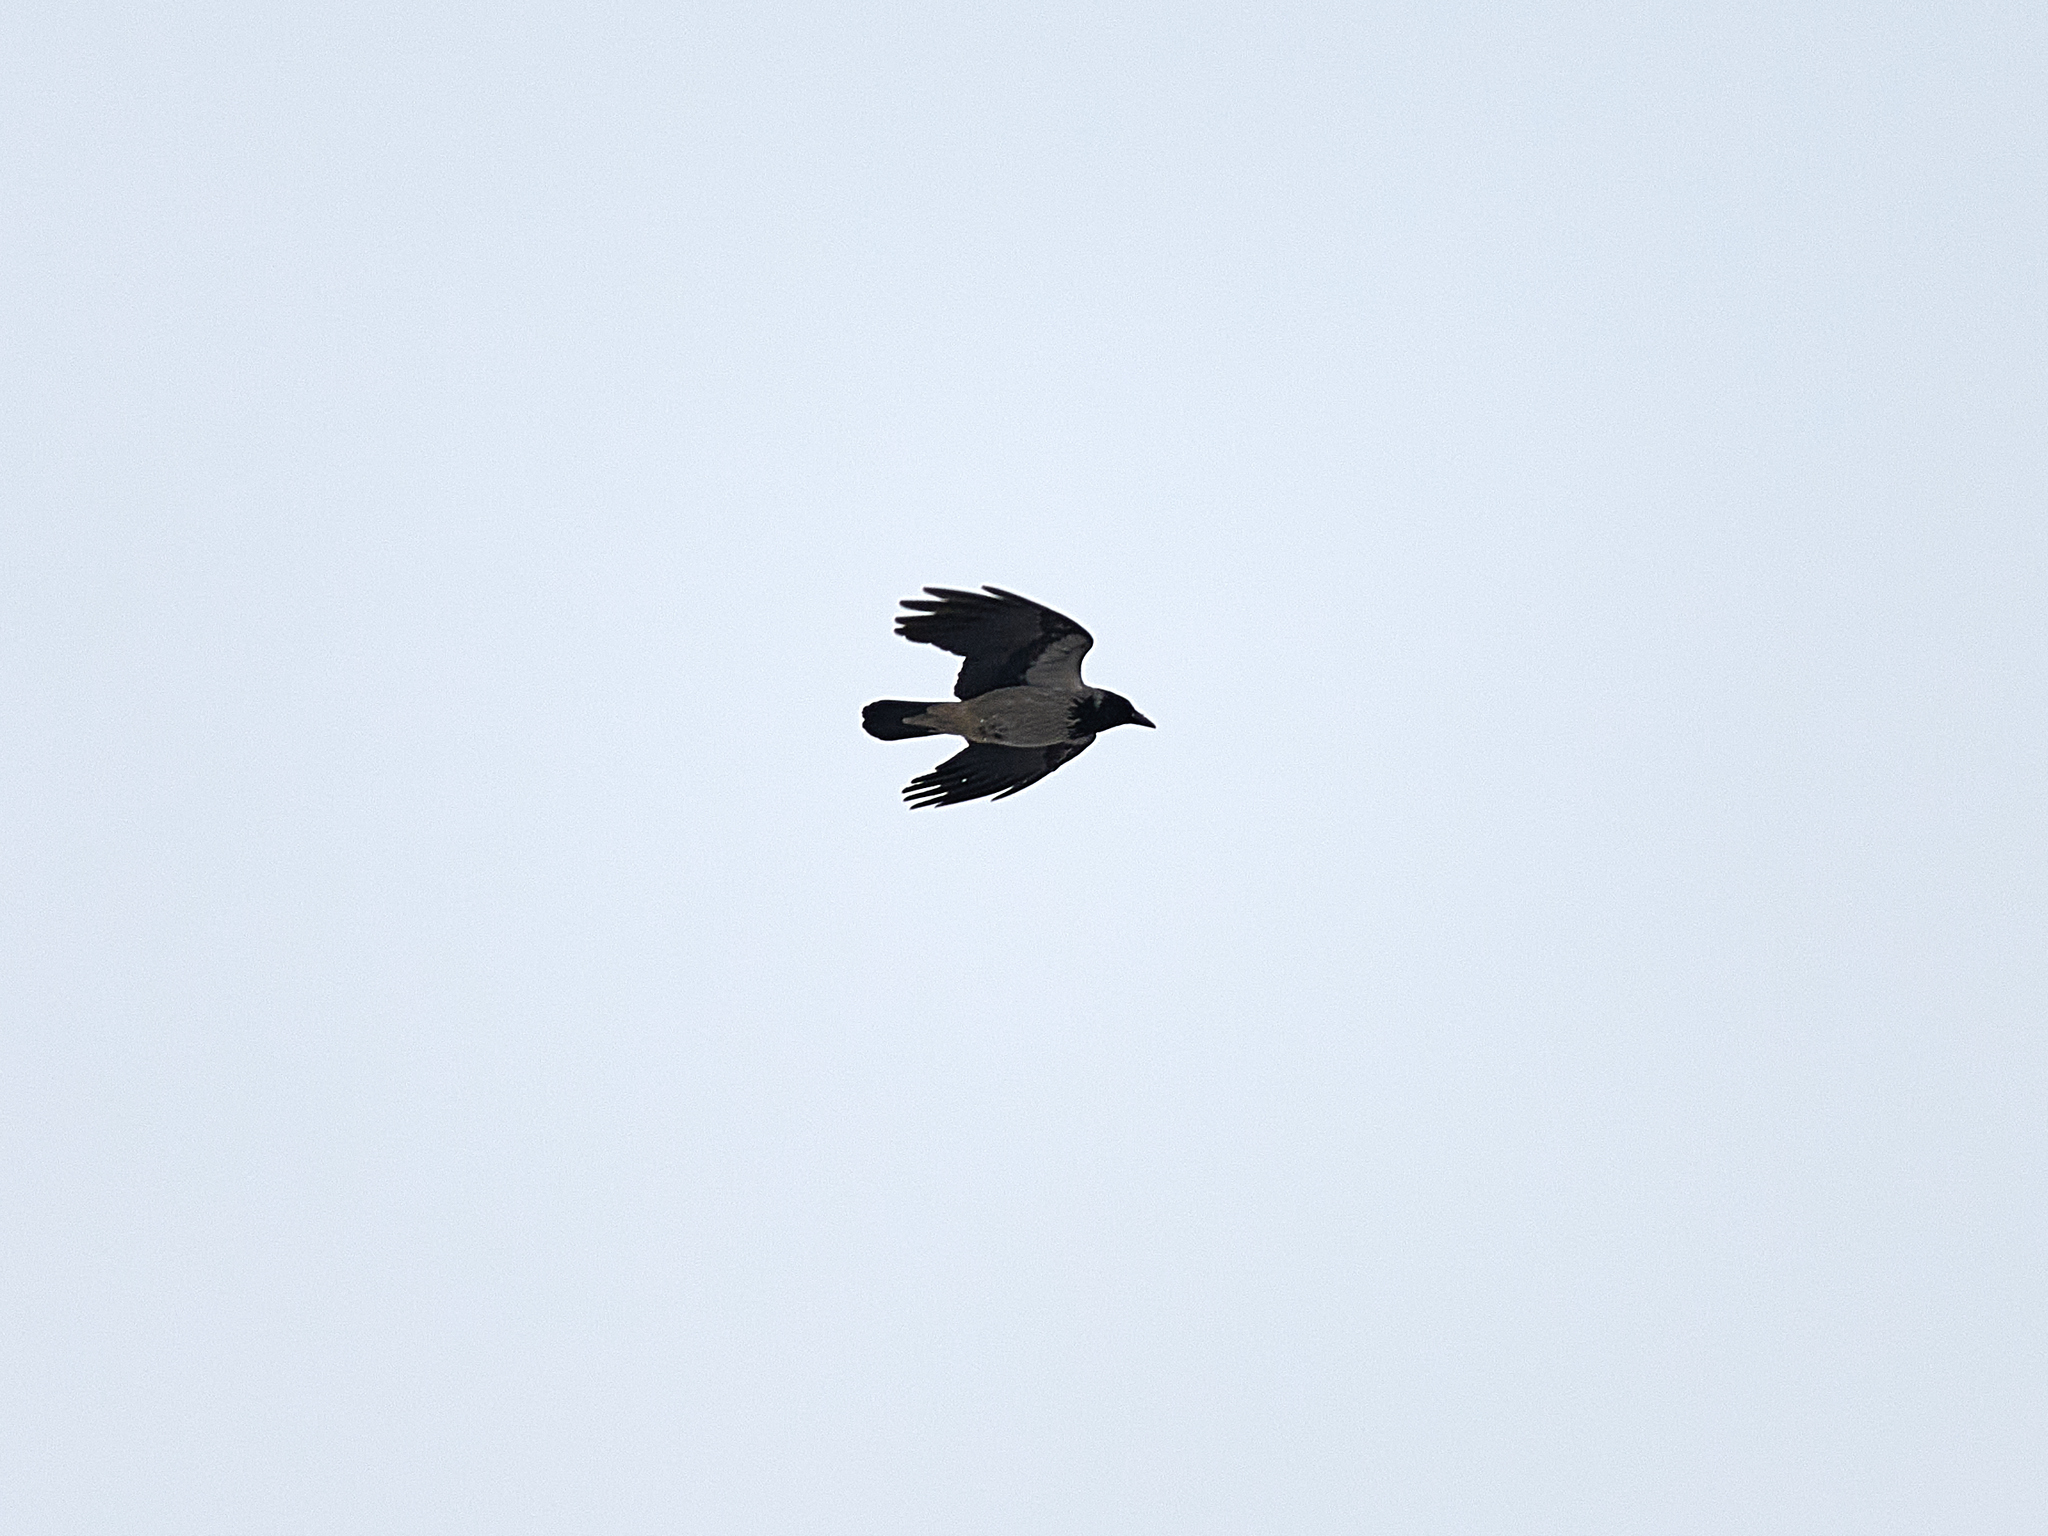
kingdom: Animalia
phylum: Chordata
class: Aves
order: Passeriformes
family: Corvidae
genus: Corvus
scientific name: Corvus cornix
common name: Hooded crow
